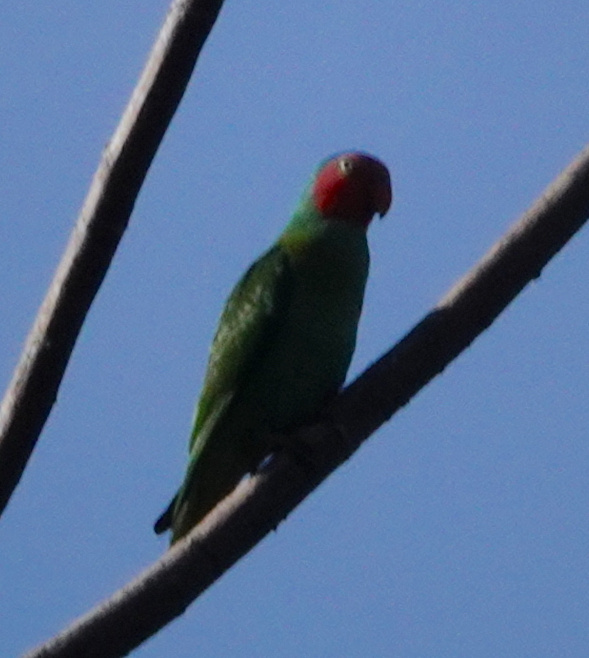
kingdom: Animalia
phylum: Chordata
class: Aves
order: Psittaciformes
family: Psittacidae
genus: Geoffroyus
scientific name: Geoffroyus geoffroyi
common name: Red-cheeked parrot
